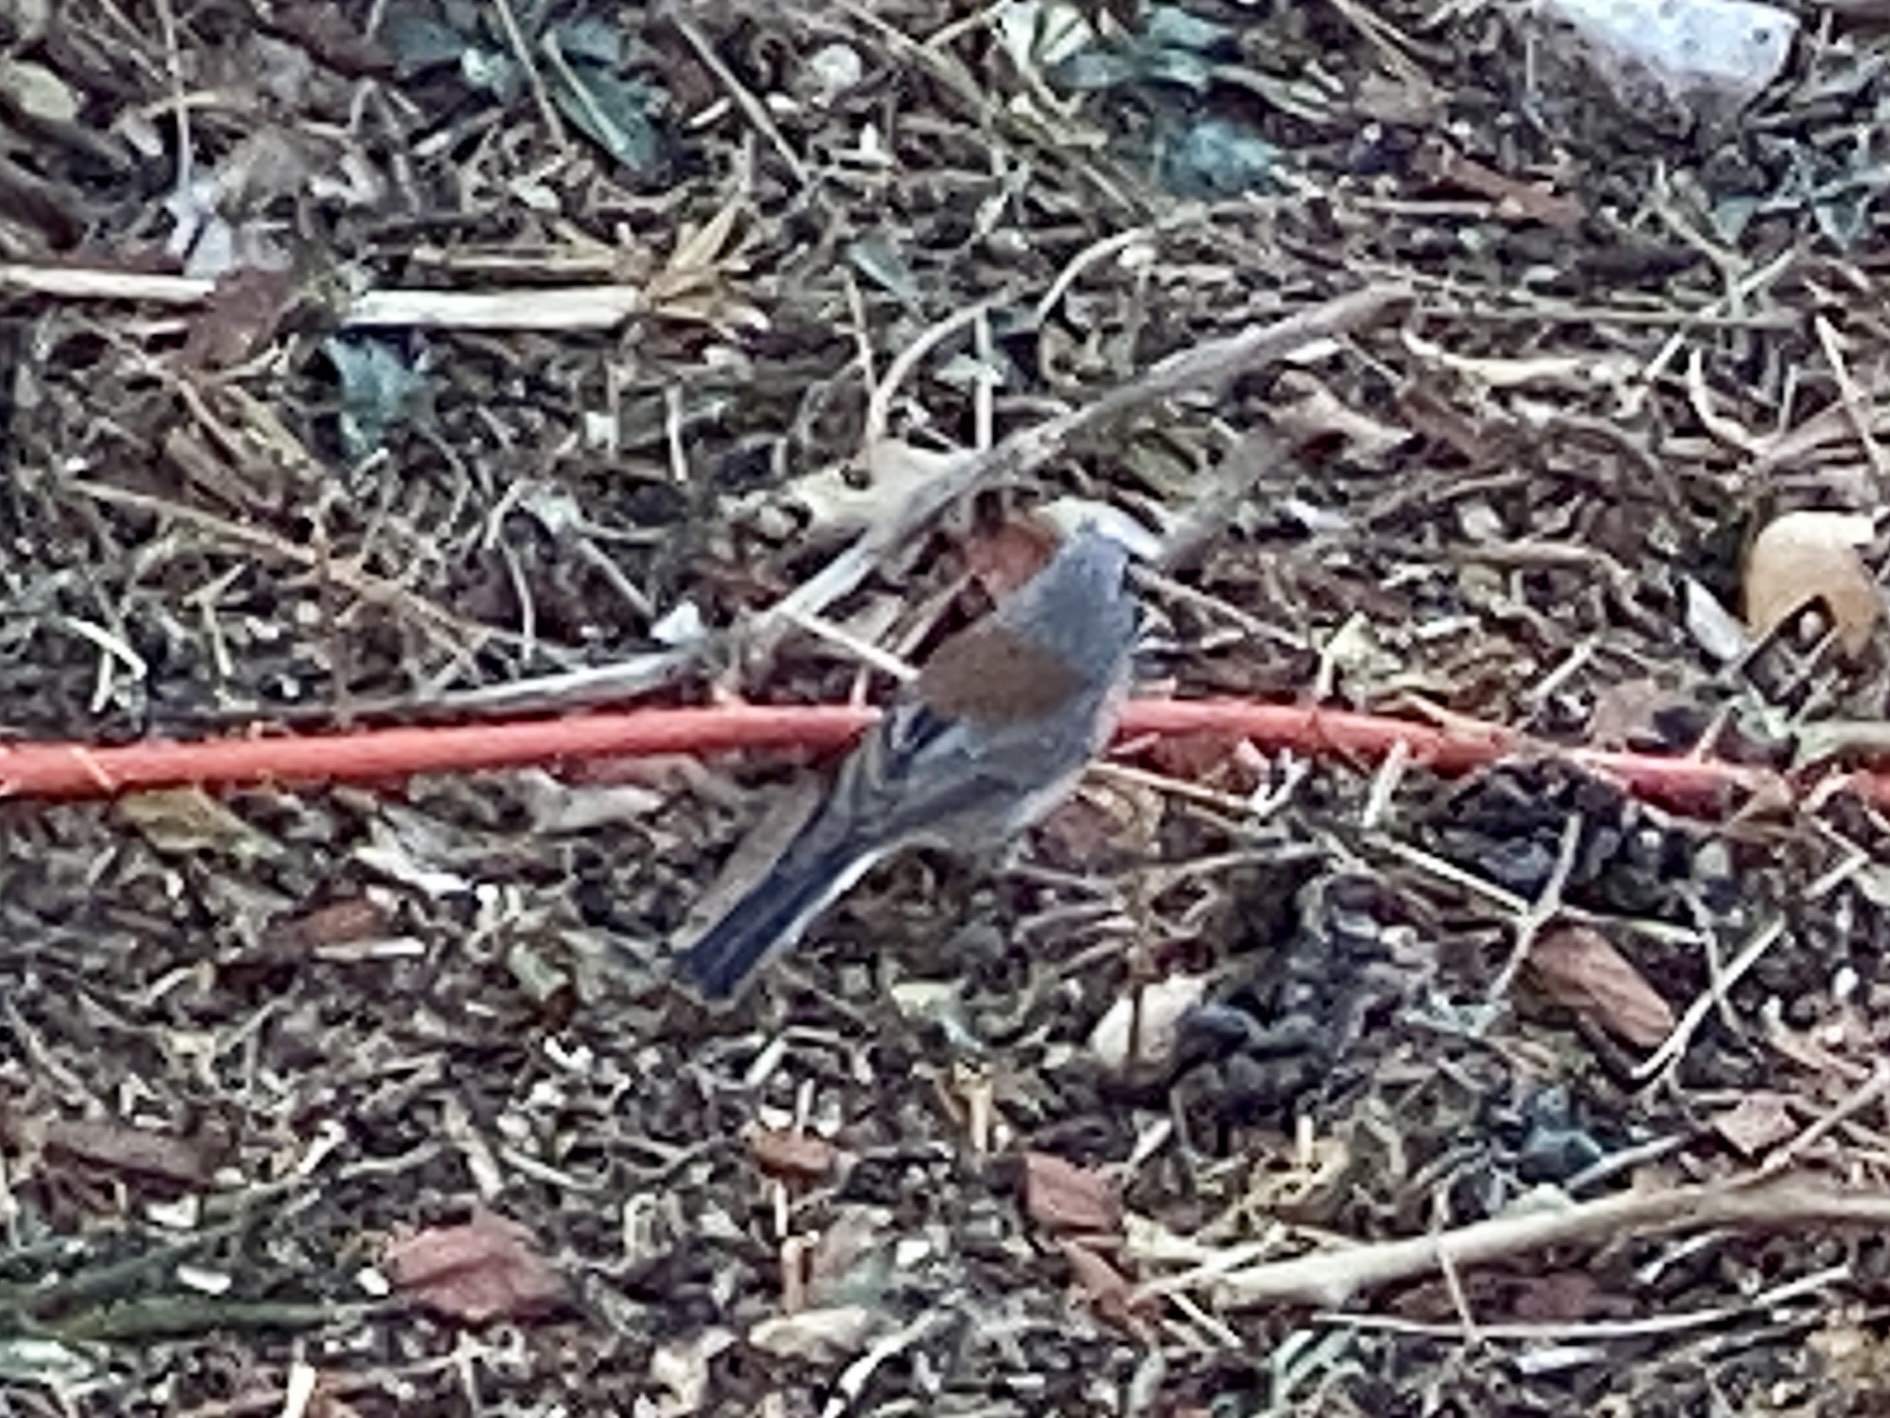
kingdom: Animalia
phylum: Chordata
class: Aves
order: Passeriformes
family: Passerellidae
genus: Junco
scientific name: Junco hyemalis
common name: Dark-eyed junco
